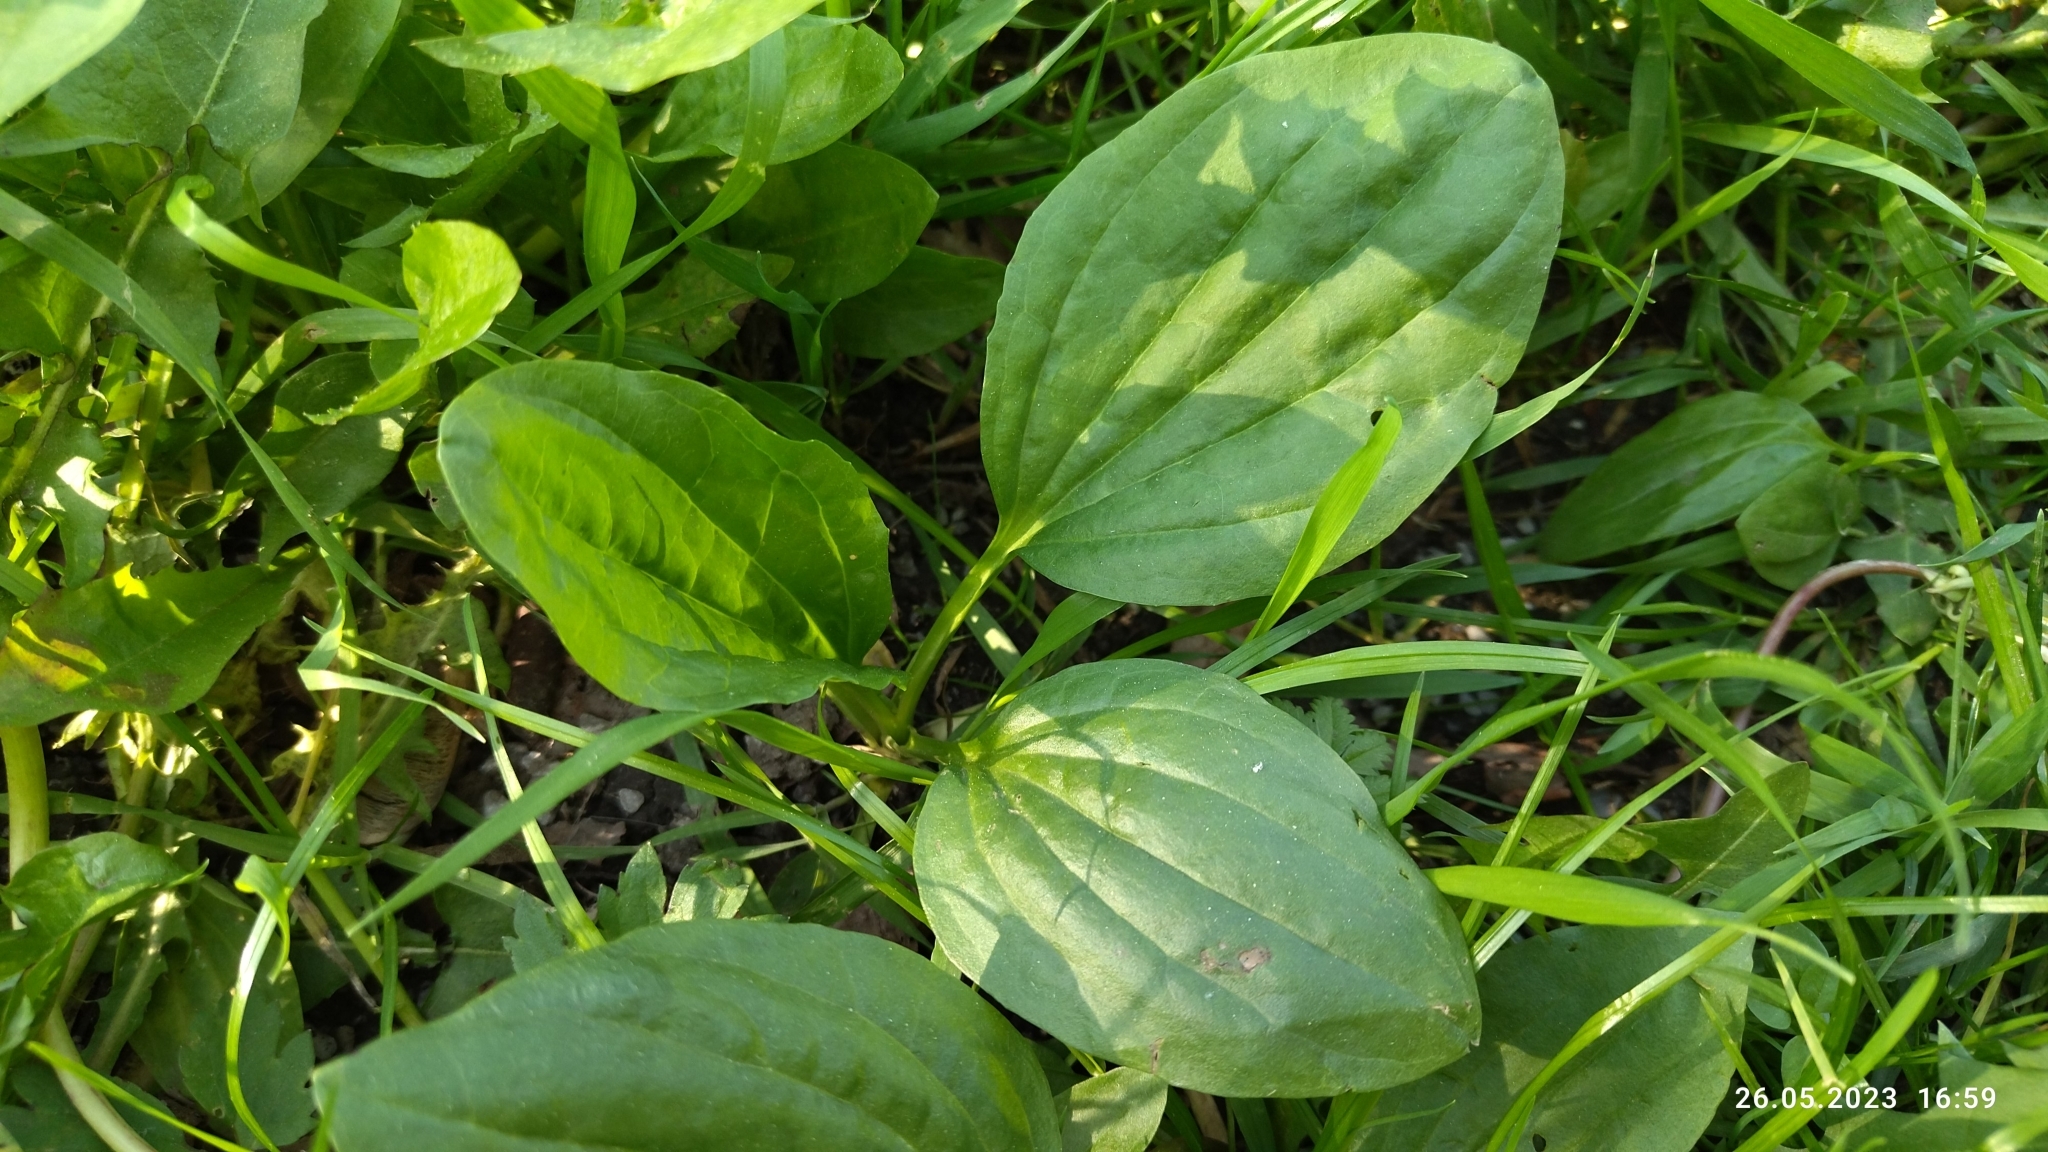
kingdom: Plantae
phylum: Tracheophyta
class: Magnoliopsida
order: Lamiales
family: Plantaginaceae
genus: Plantago
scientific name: Plantago major
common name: Common plantain
